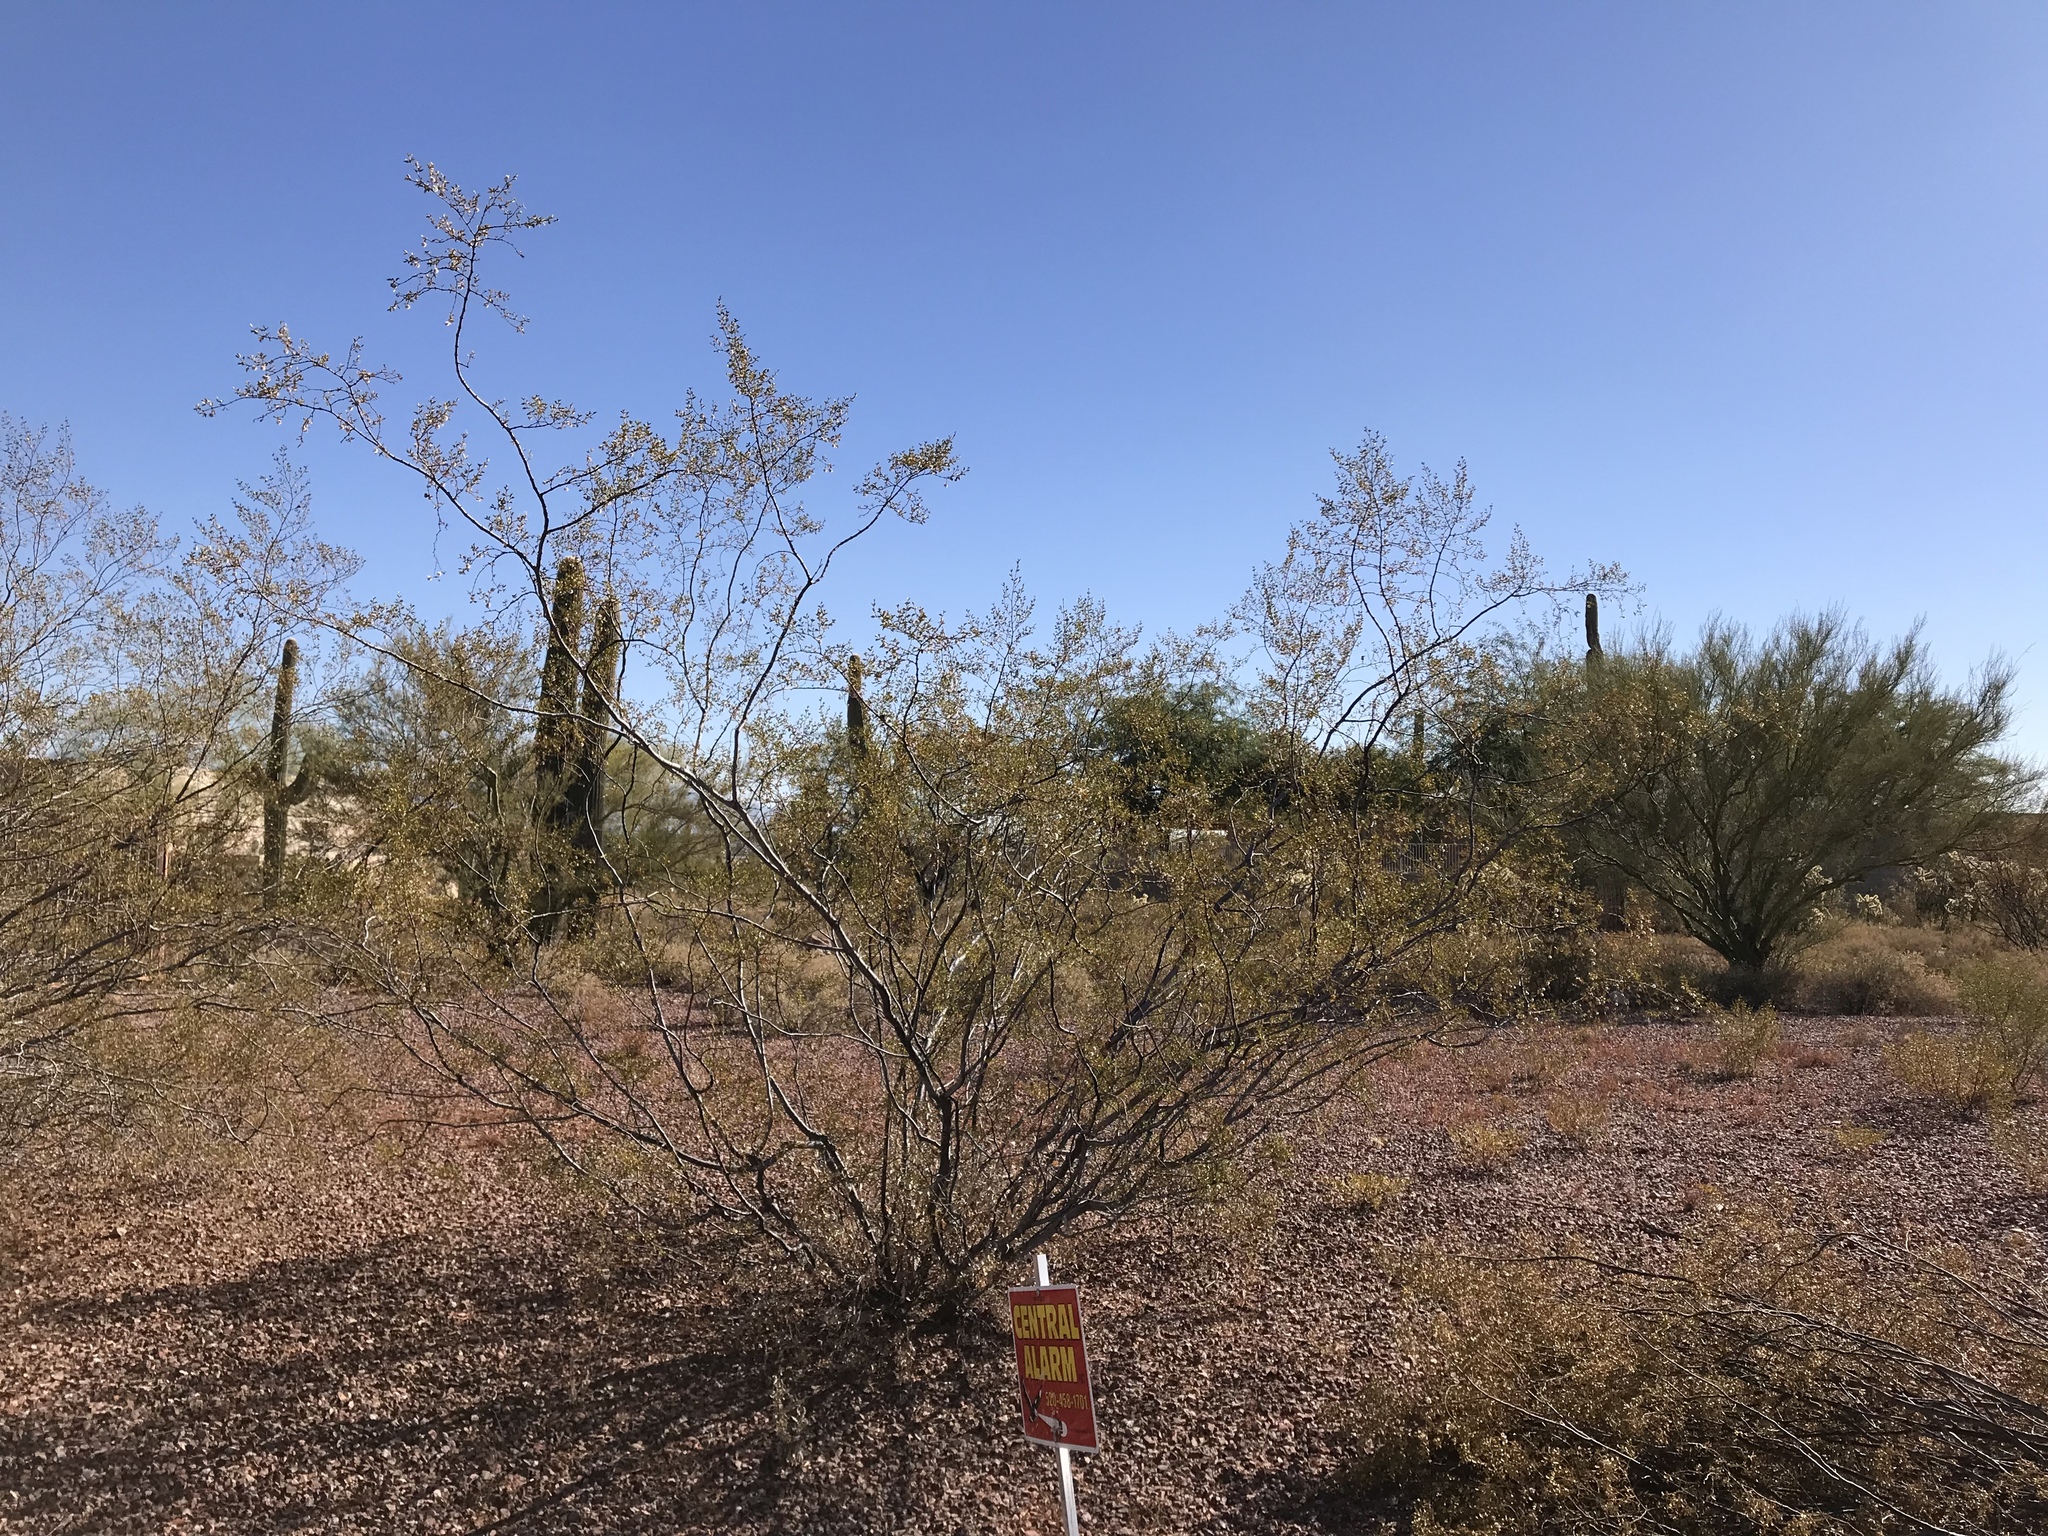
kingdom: Plantae
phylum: Tracheophyta
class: Magnoliopsida
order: Zygophyllales
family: Zygophyllaceae
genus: Larrea
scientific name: Larrea tridentata
